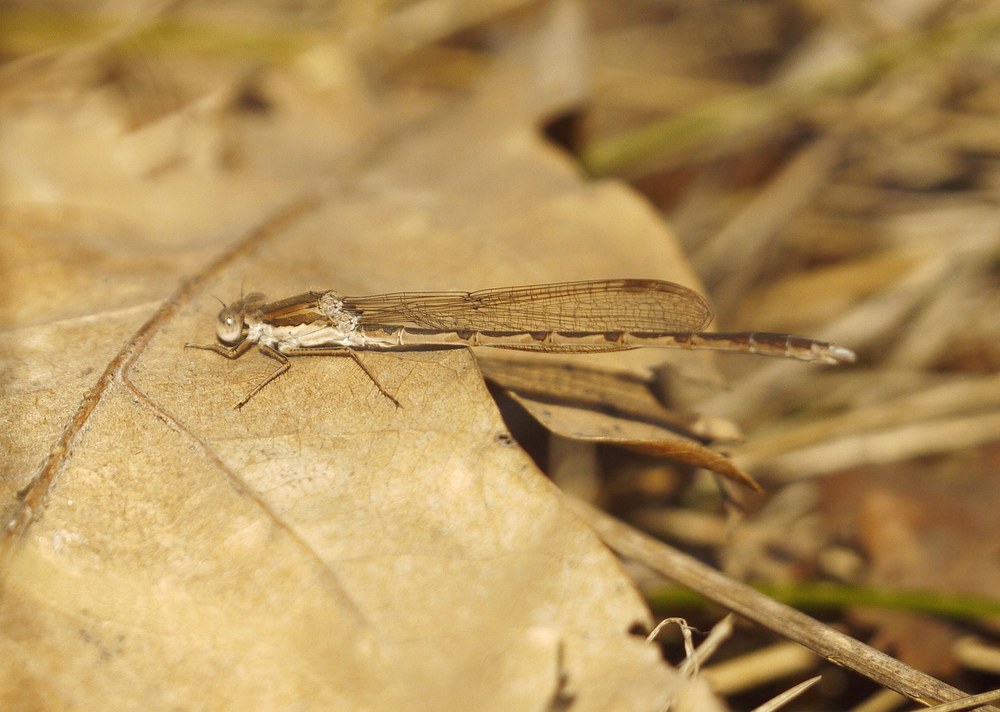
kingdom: Animalia
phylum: Arthropoda
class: Insecta
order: Odonata
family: Lestidae
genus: Sympecma
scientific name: Sympecma fusca
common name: Common winter damsel
